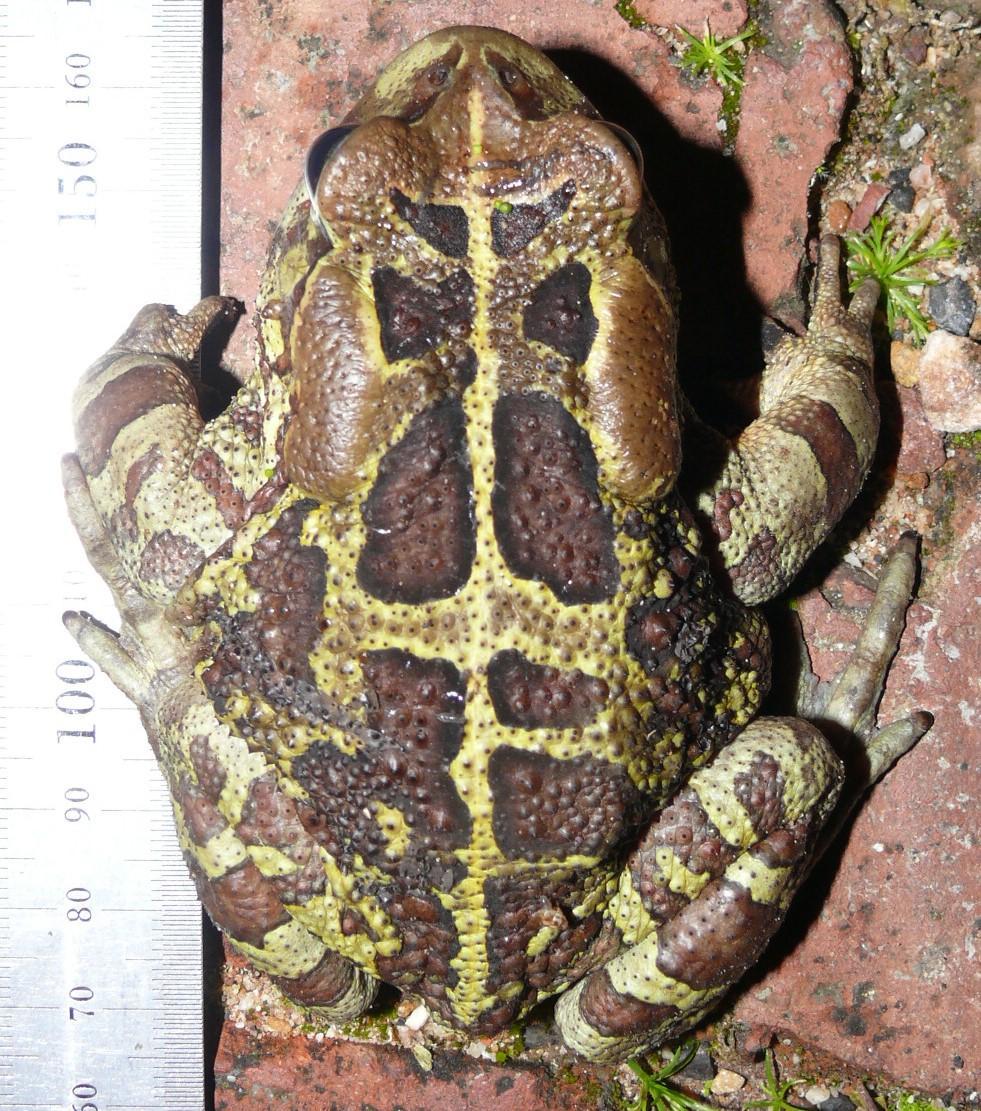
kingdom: Animalia
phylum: Chordata
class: Amphibia
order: Anura
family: Bufonidae
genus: Sclerophrys
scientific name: Sclerophrys pantherina
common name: Panther toad
